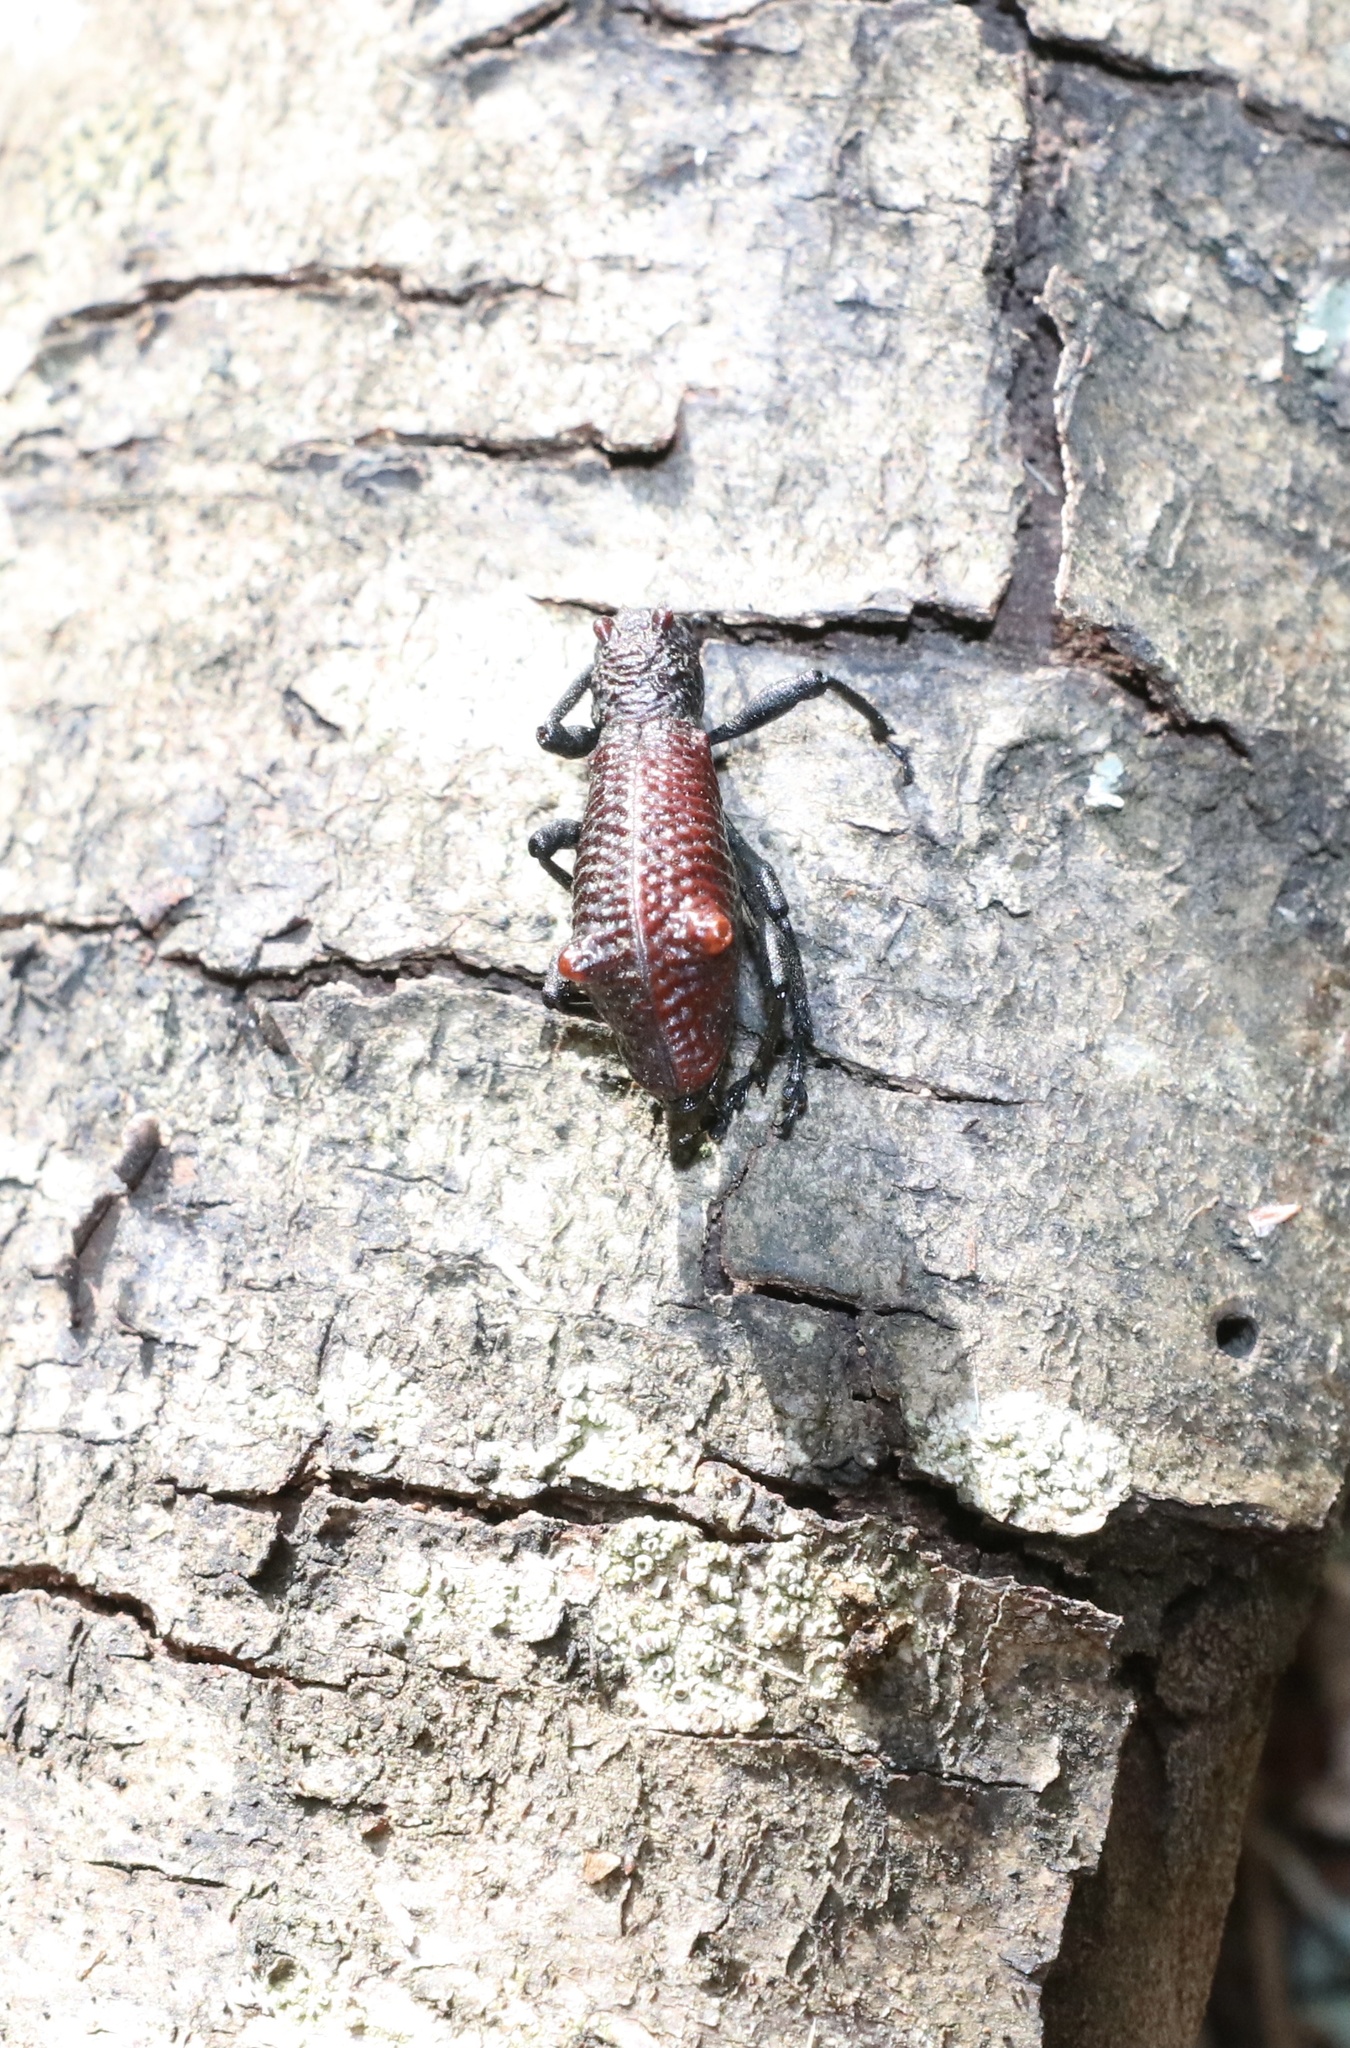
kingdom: Animalia
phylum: Arthropoda
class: Insecta
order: Coleoptera
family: Curculionidae
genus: Aegorhinus
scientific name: Aegorhinus bulbifer
